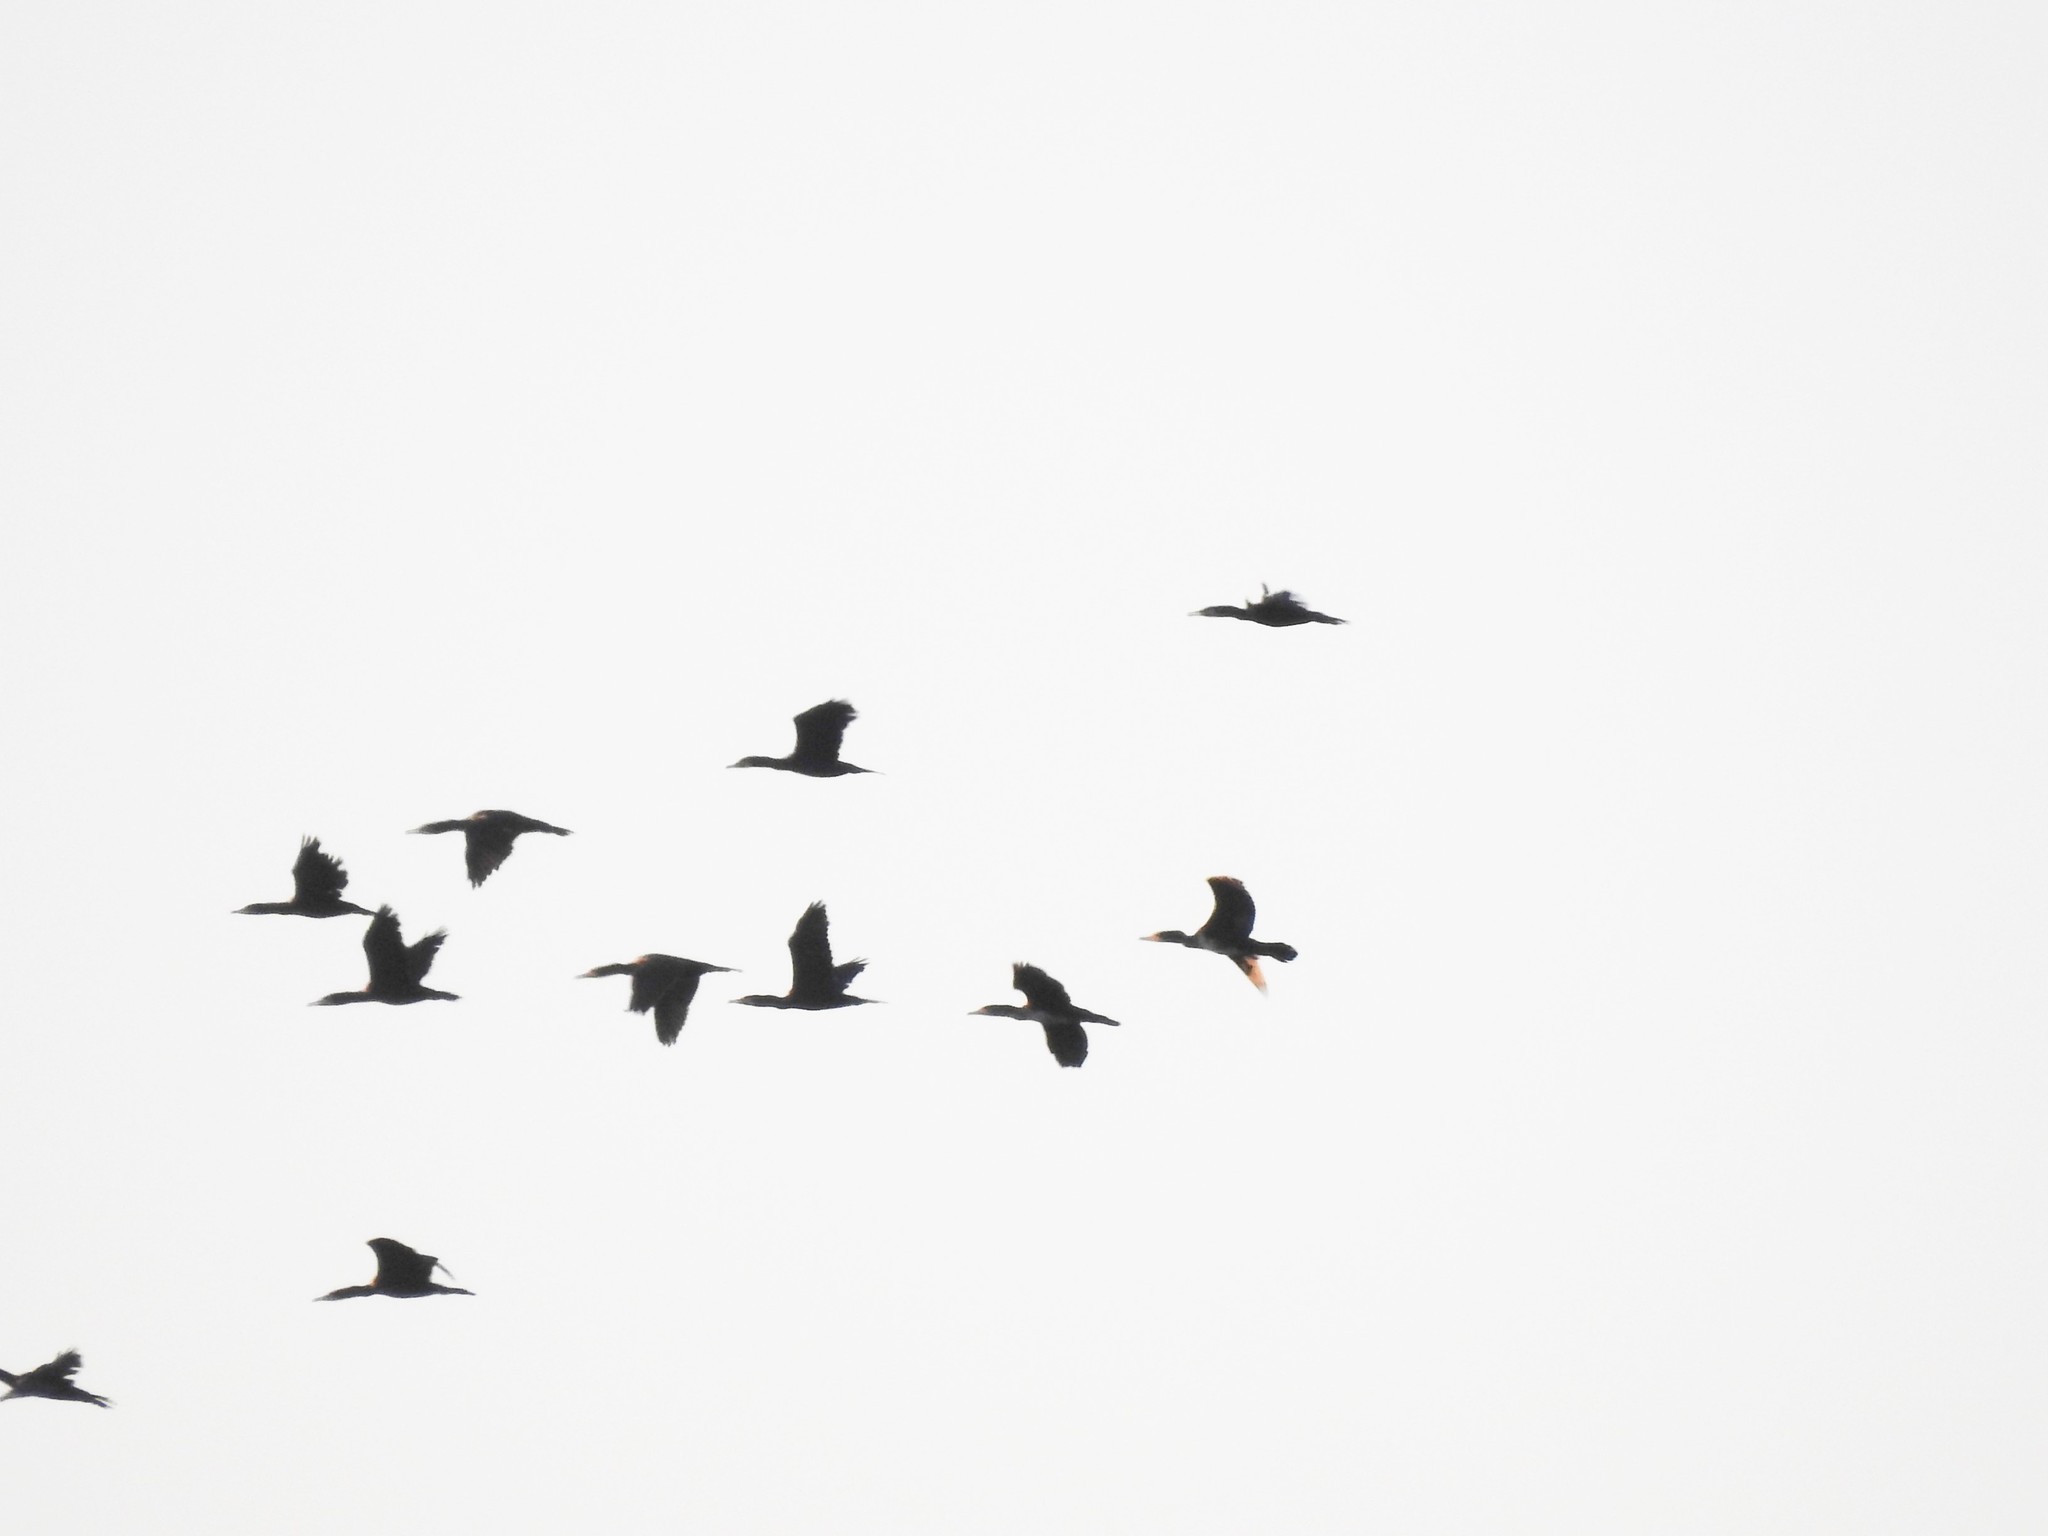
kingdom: Animalia
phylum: Chordata
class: Aves
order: Suliformes
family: Phalacrocoracidae
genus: Phalacrocorax
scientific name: Phalacrocorax carbo
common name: Great cormorant
